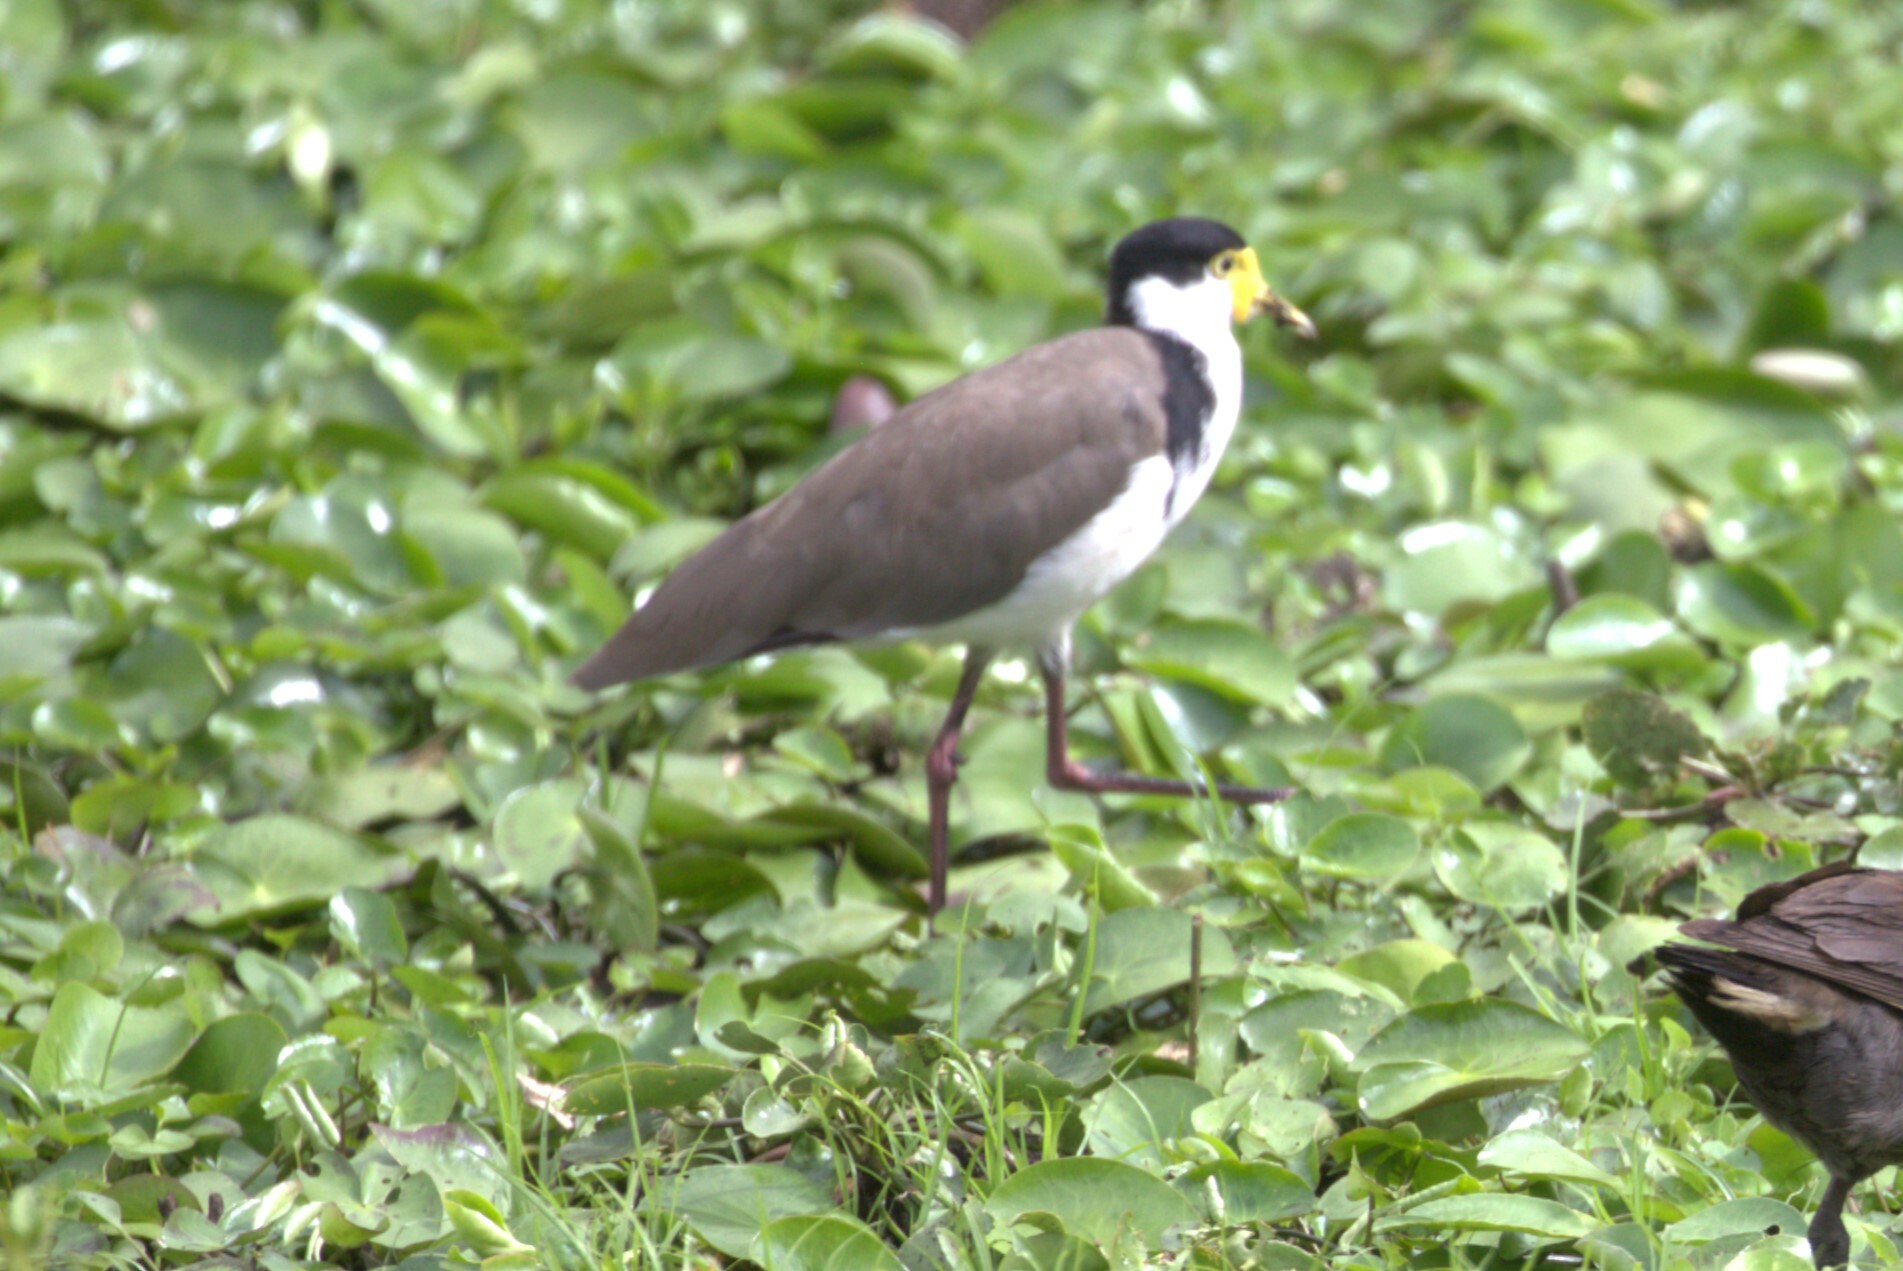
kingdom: Animalia
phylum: Chordata
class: Aves
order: Charadriiformes
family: Charadriidae
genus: Vanellus
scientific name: Vanellus miles
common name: Masked lapwing
